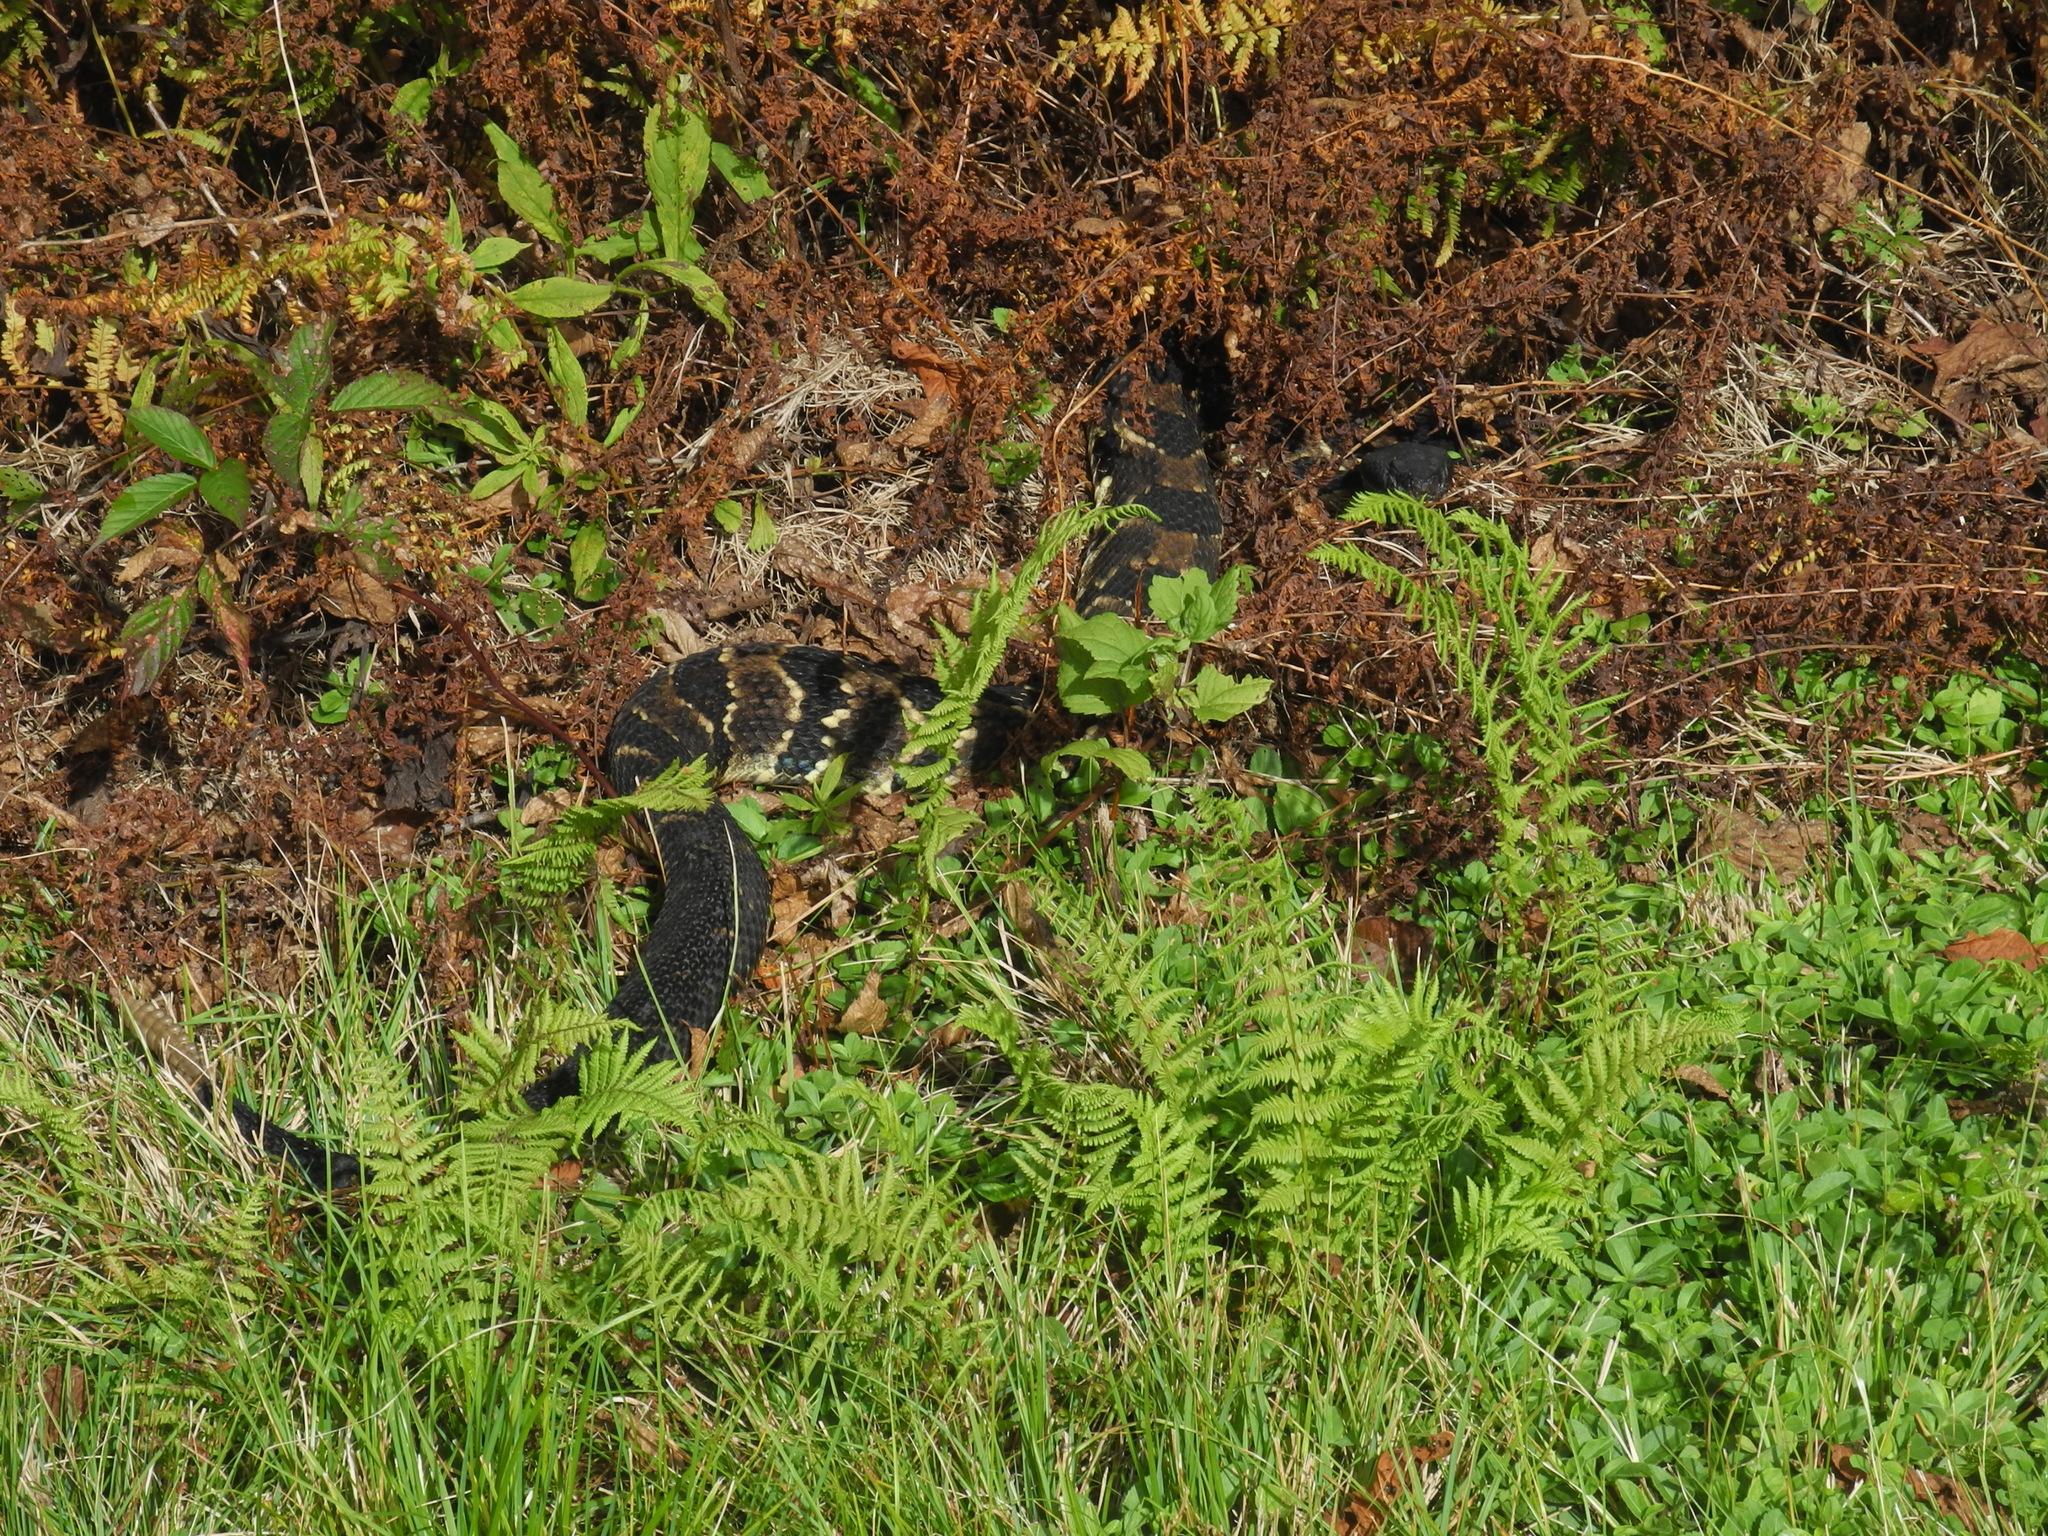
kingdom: Animalia
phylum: Chordata
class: Squamata
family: Viperidae
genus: Crotalus
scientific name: Crotalus horridus
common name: Timber rattlesnake
